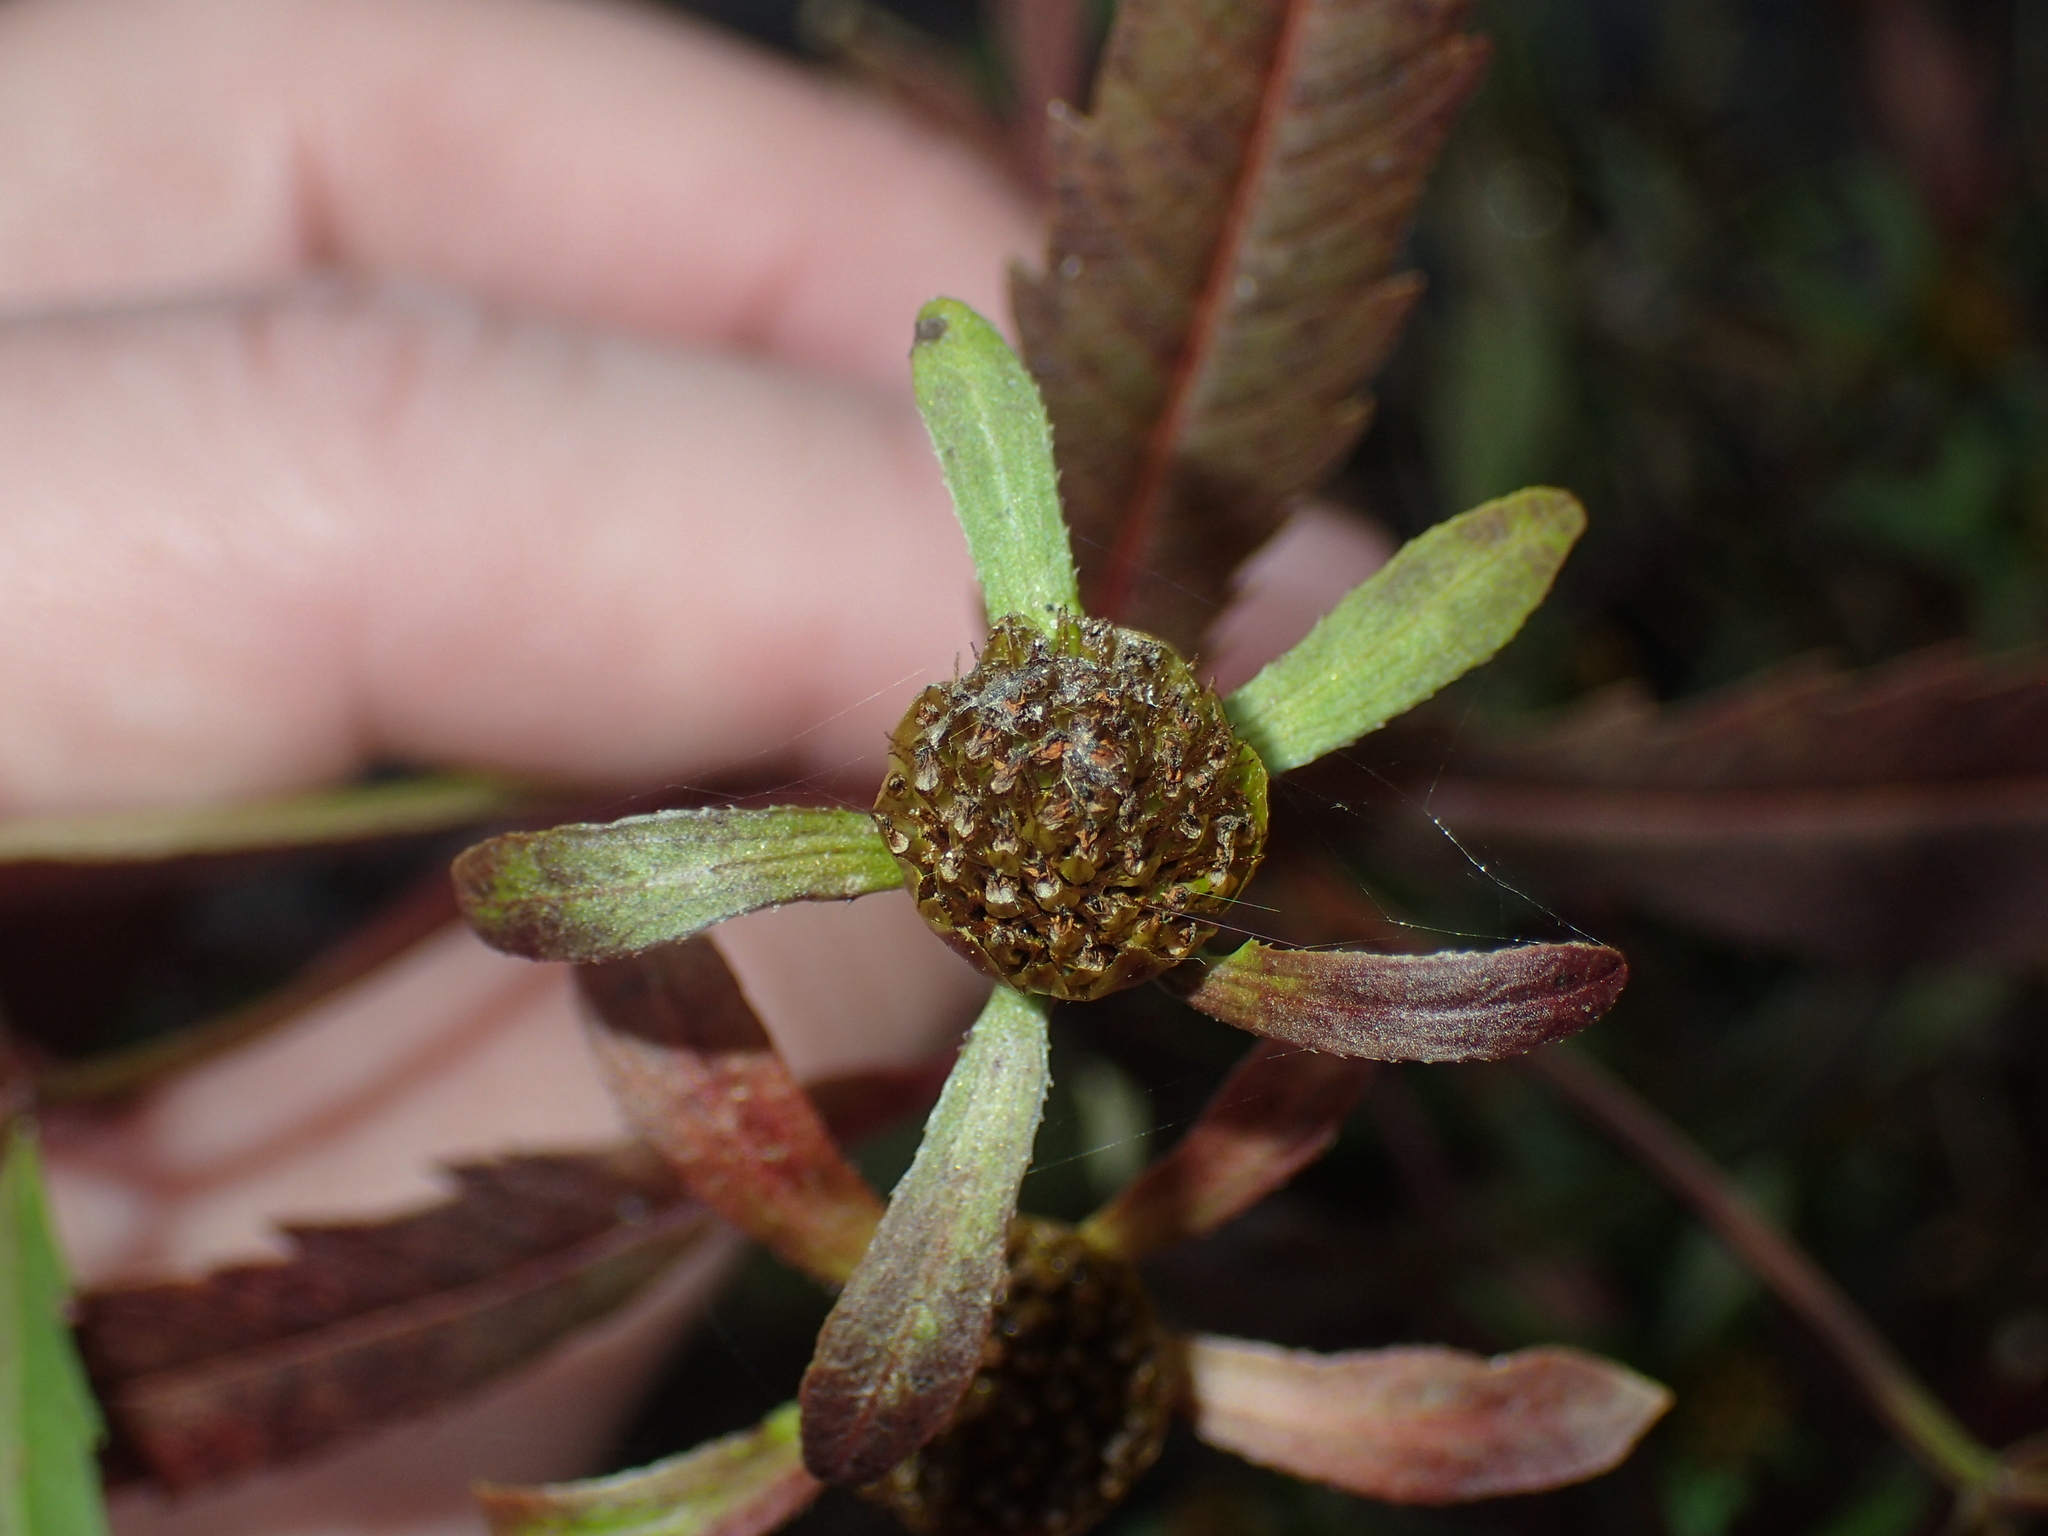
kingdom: Plantae
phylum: Tracheophyta
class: Magnoliopsida
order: Asterales
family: Asteraceae
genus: Bidens
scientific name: Bidens connata
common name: London bur-marigold
